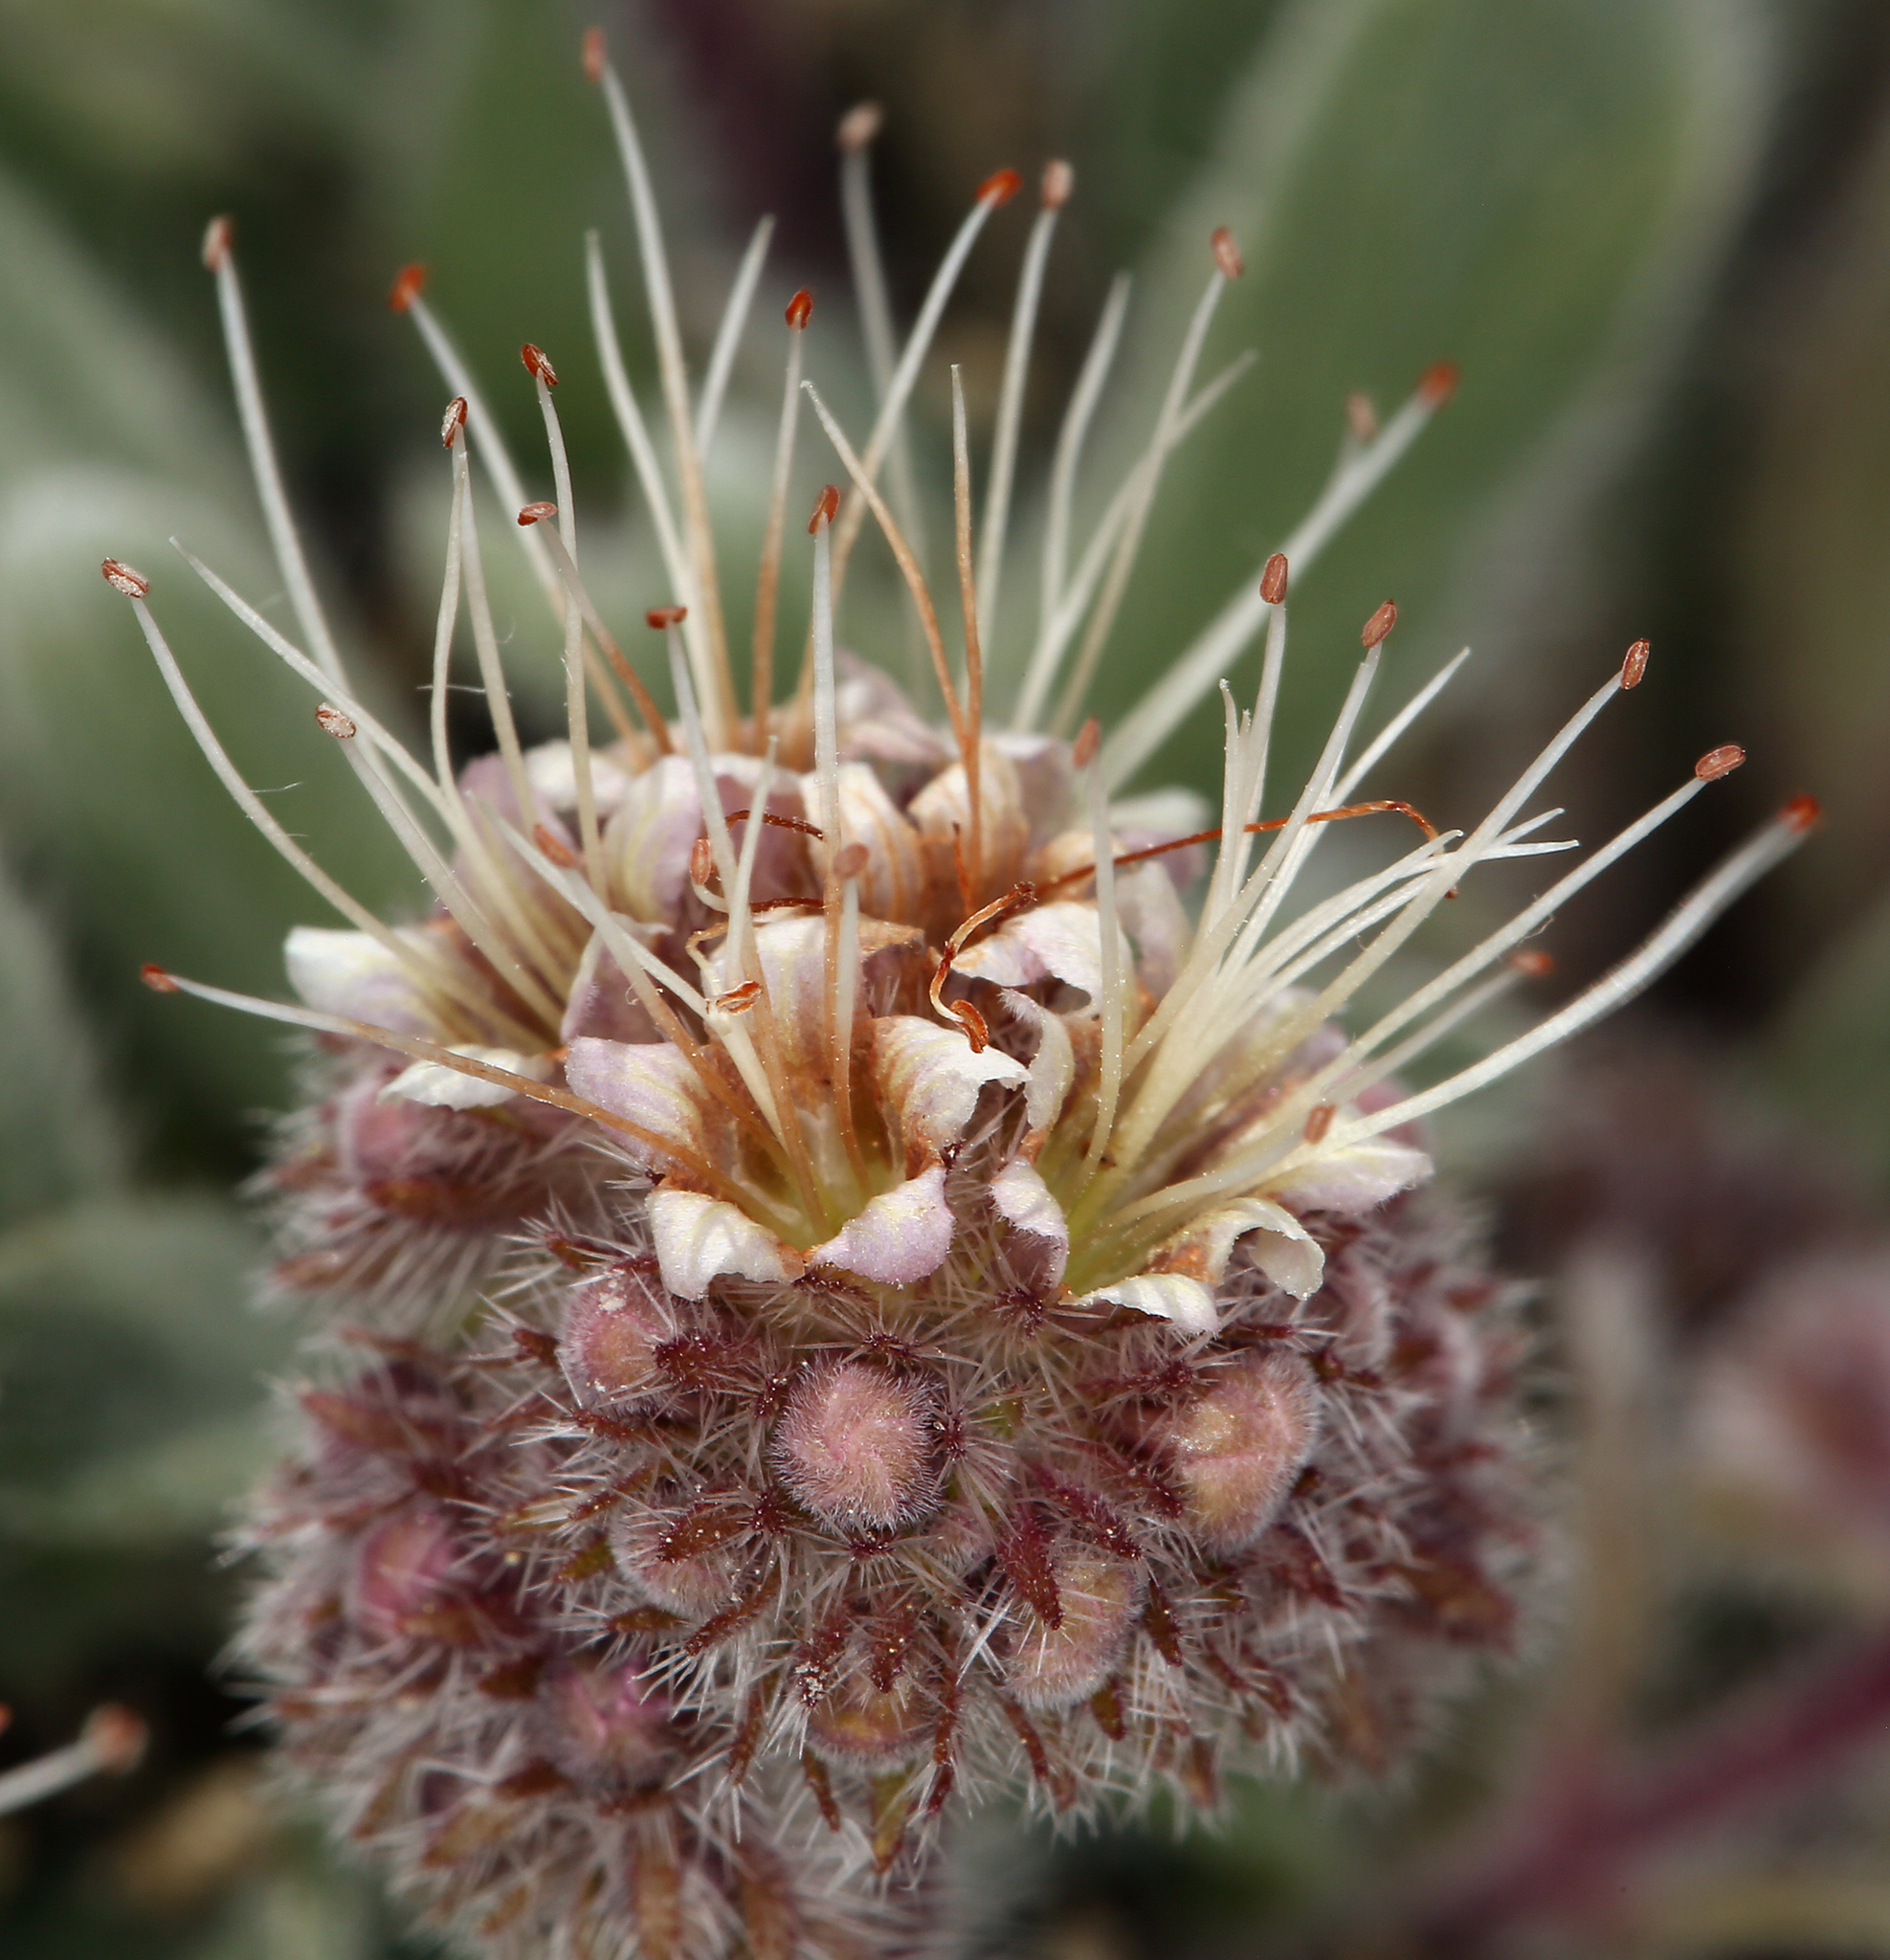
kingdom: Plantae
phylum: Tracheophyta
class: Magnoliopsida
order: Boraginales
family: Hydrophyllaceae
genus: Phacelia
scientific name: Phacelia hastata
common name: Silver-leaved phacelia
